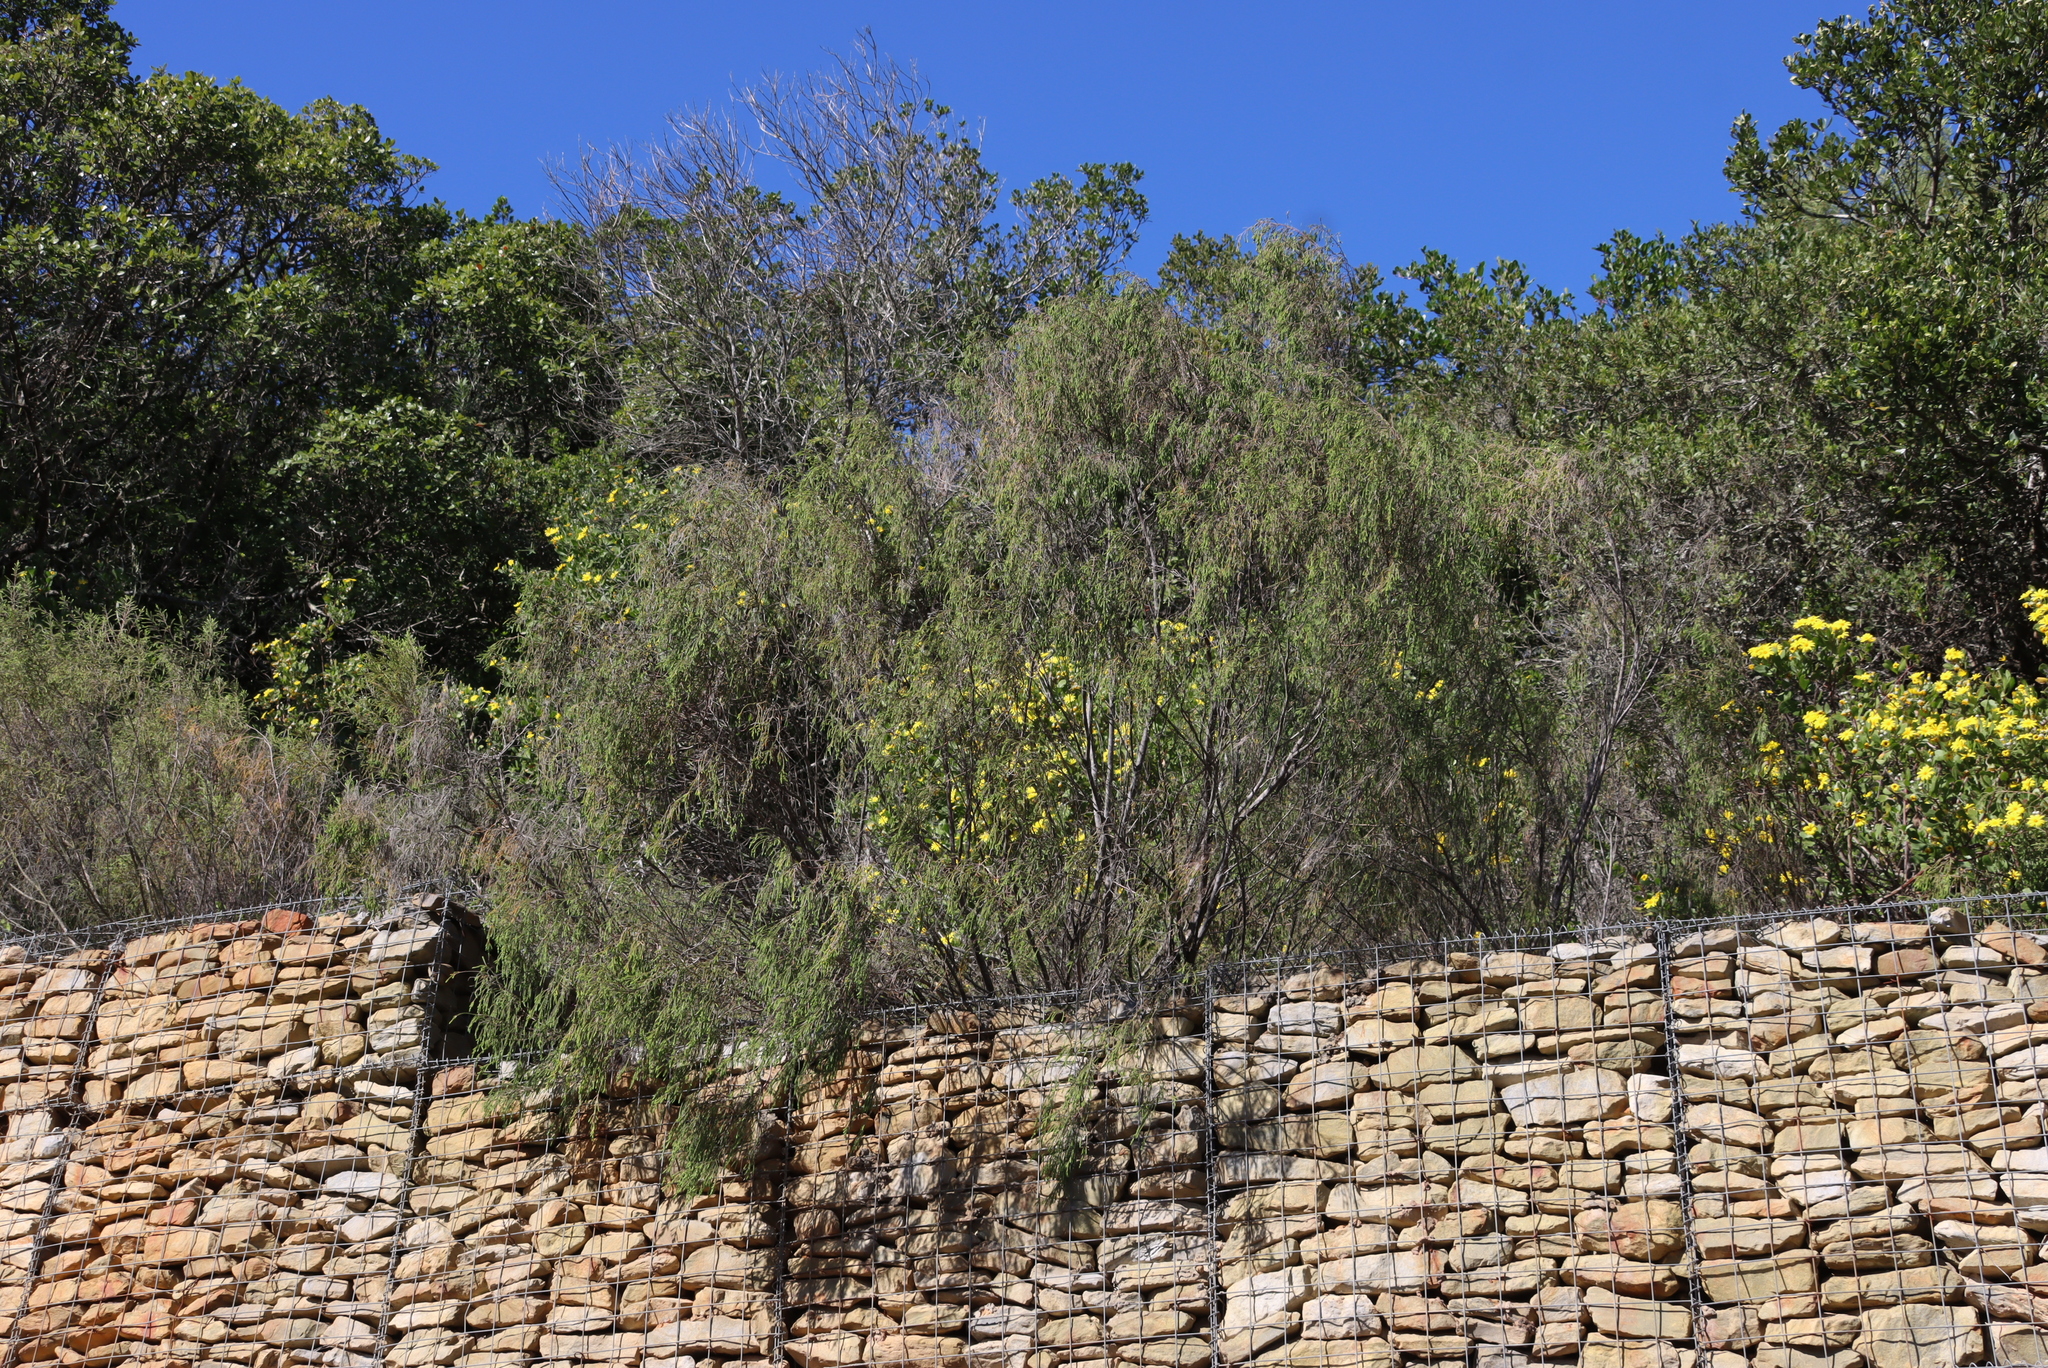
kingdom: Plantae
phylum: Tracheophyta
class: Magnoliopsida
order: Malvales
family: Thymelaeaceae
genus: Passerina
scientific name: Passerina falcifolia
